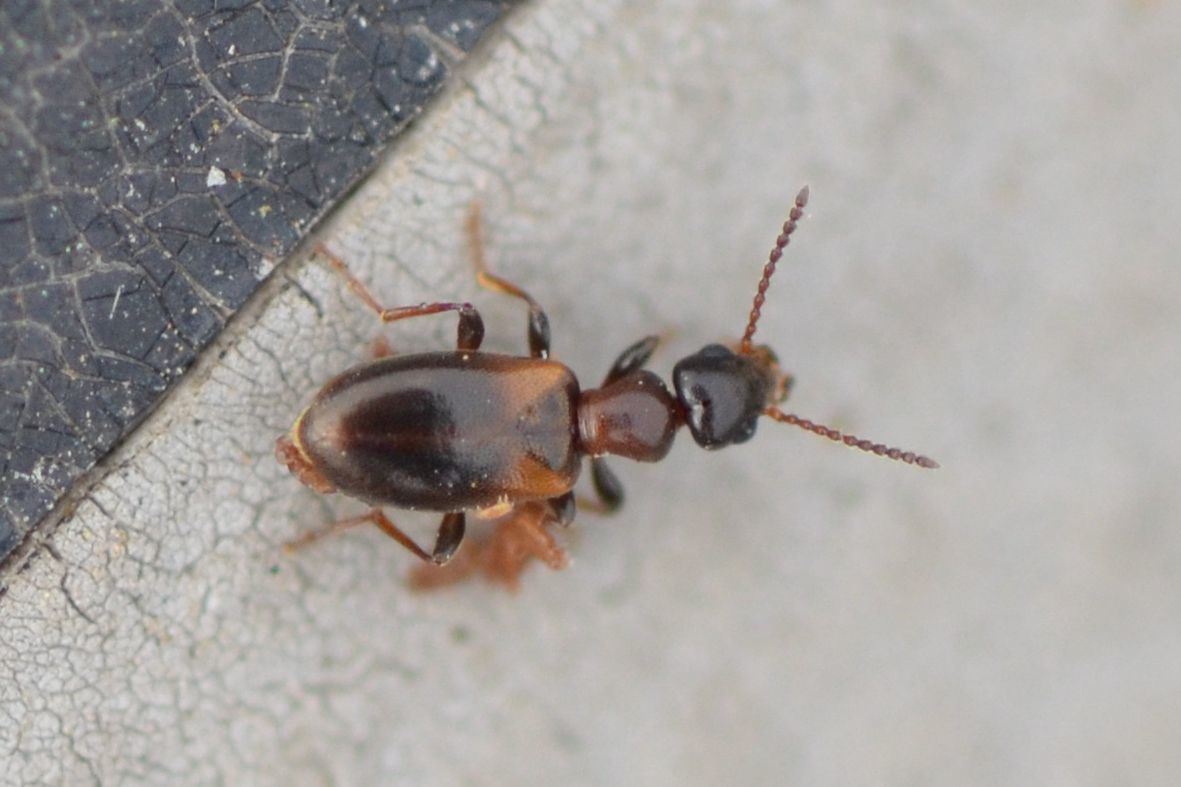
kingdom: Animalia
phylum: Arthropoda
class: Insecta
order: Coleoptera
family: Anthicidae
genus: Omonadus
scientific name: Omonadus floralis
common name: Narrownecked grain beetle
